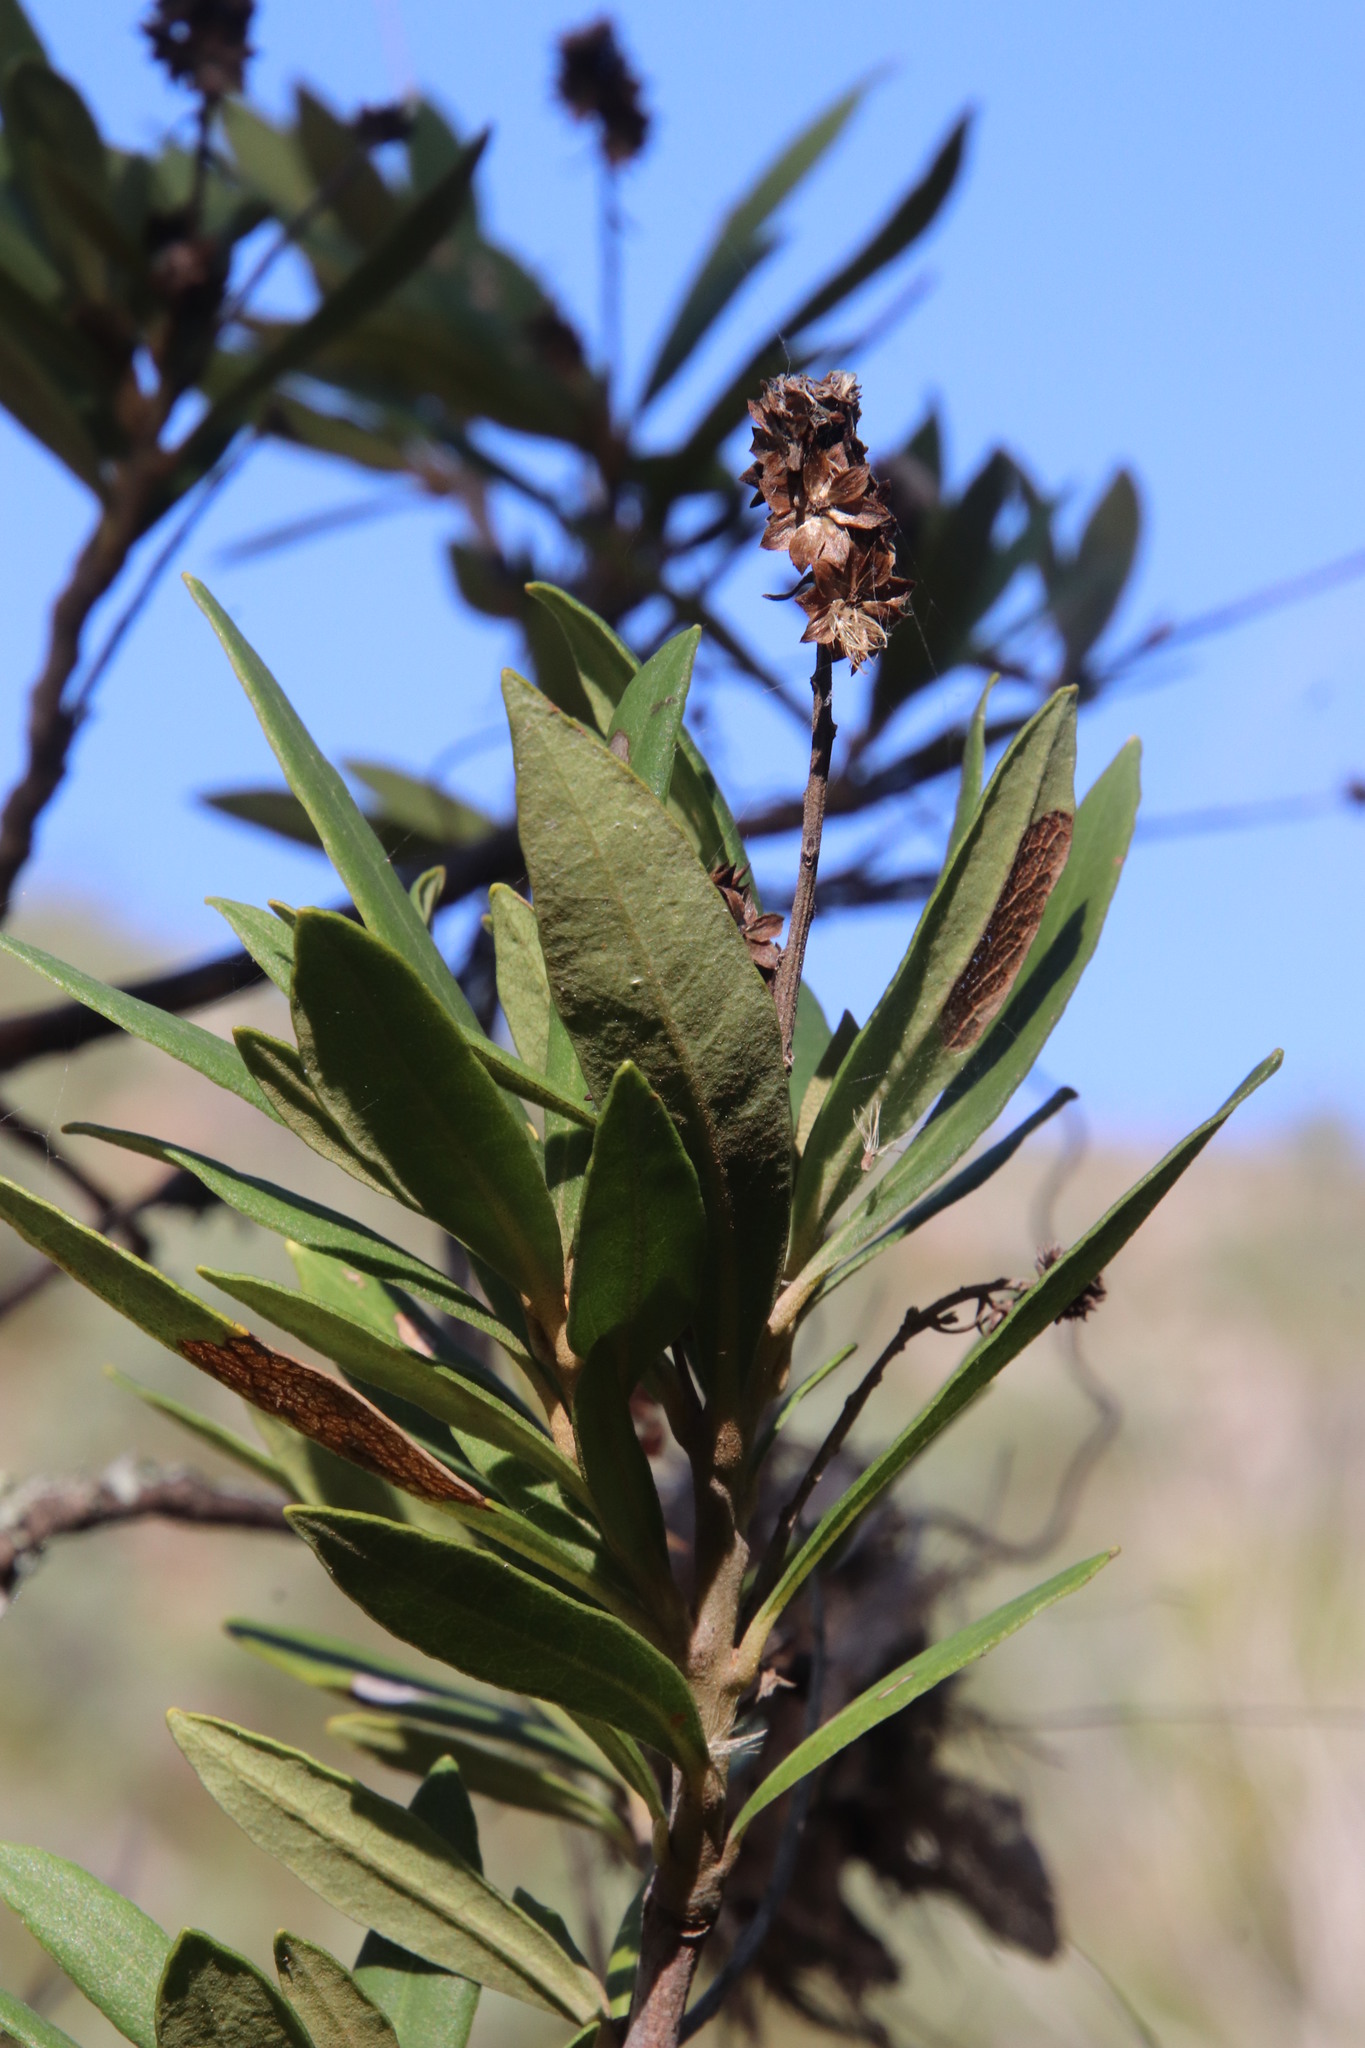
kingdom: Plantae
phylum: Tracheophyta
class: Magnoliopsida
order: Asterales
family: Asteraceae
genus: Brachylaena
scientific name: Brachylaena neriifolia
